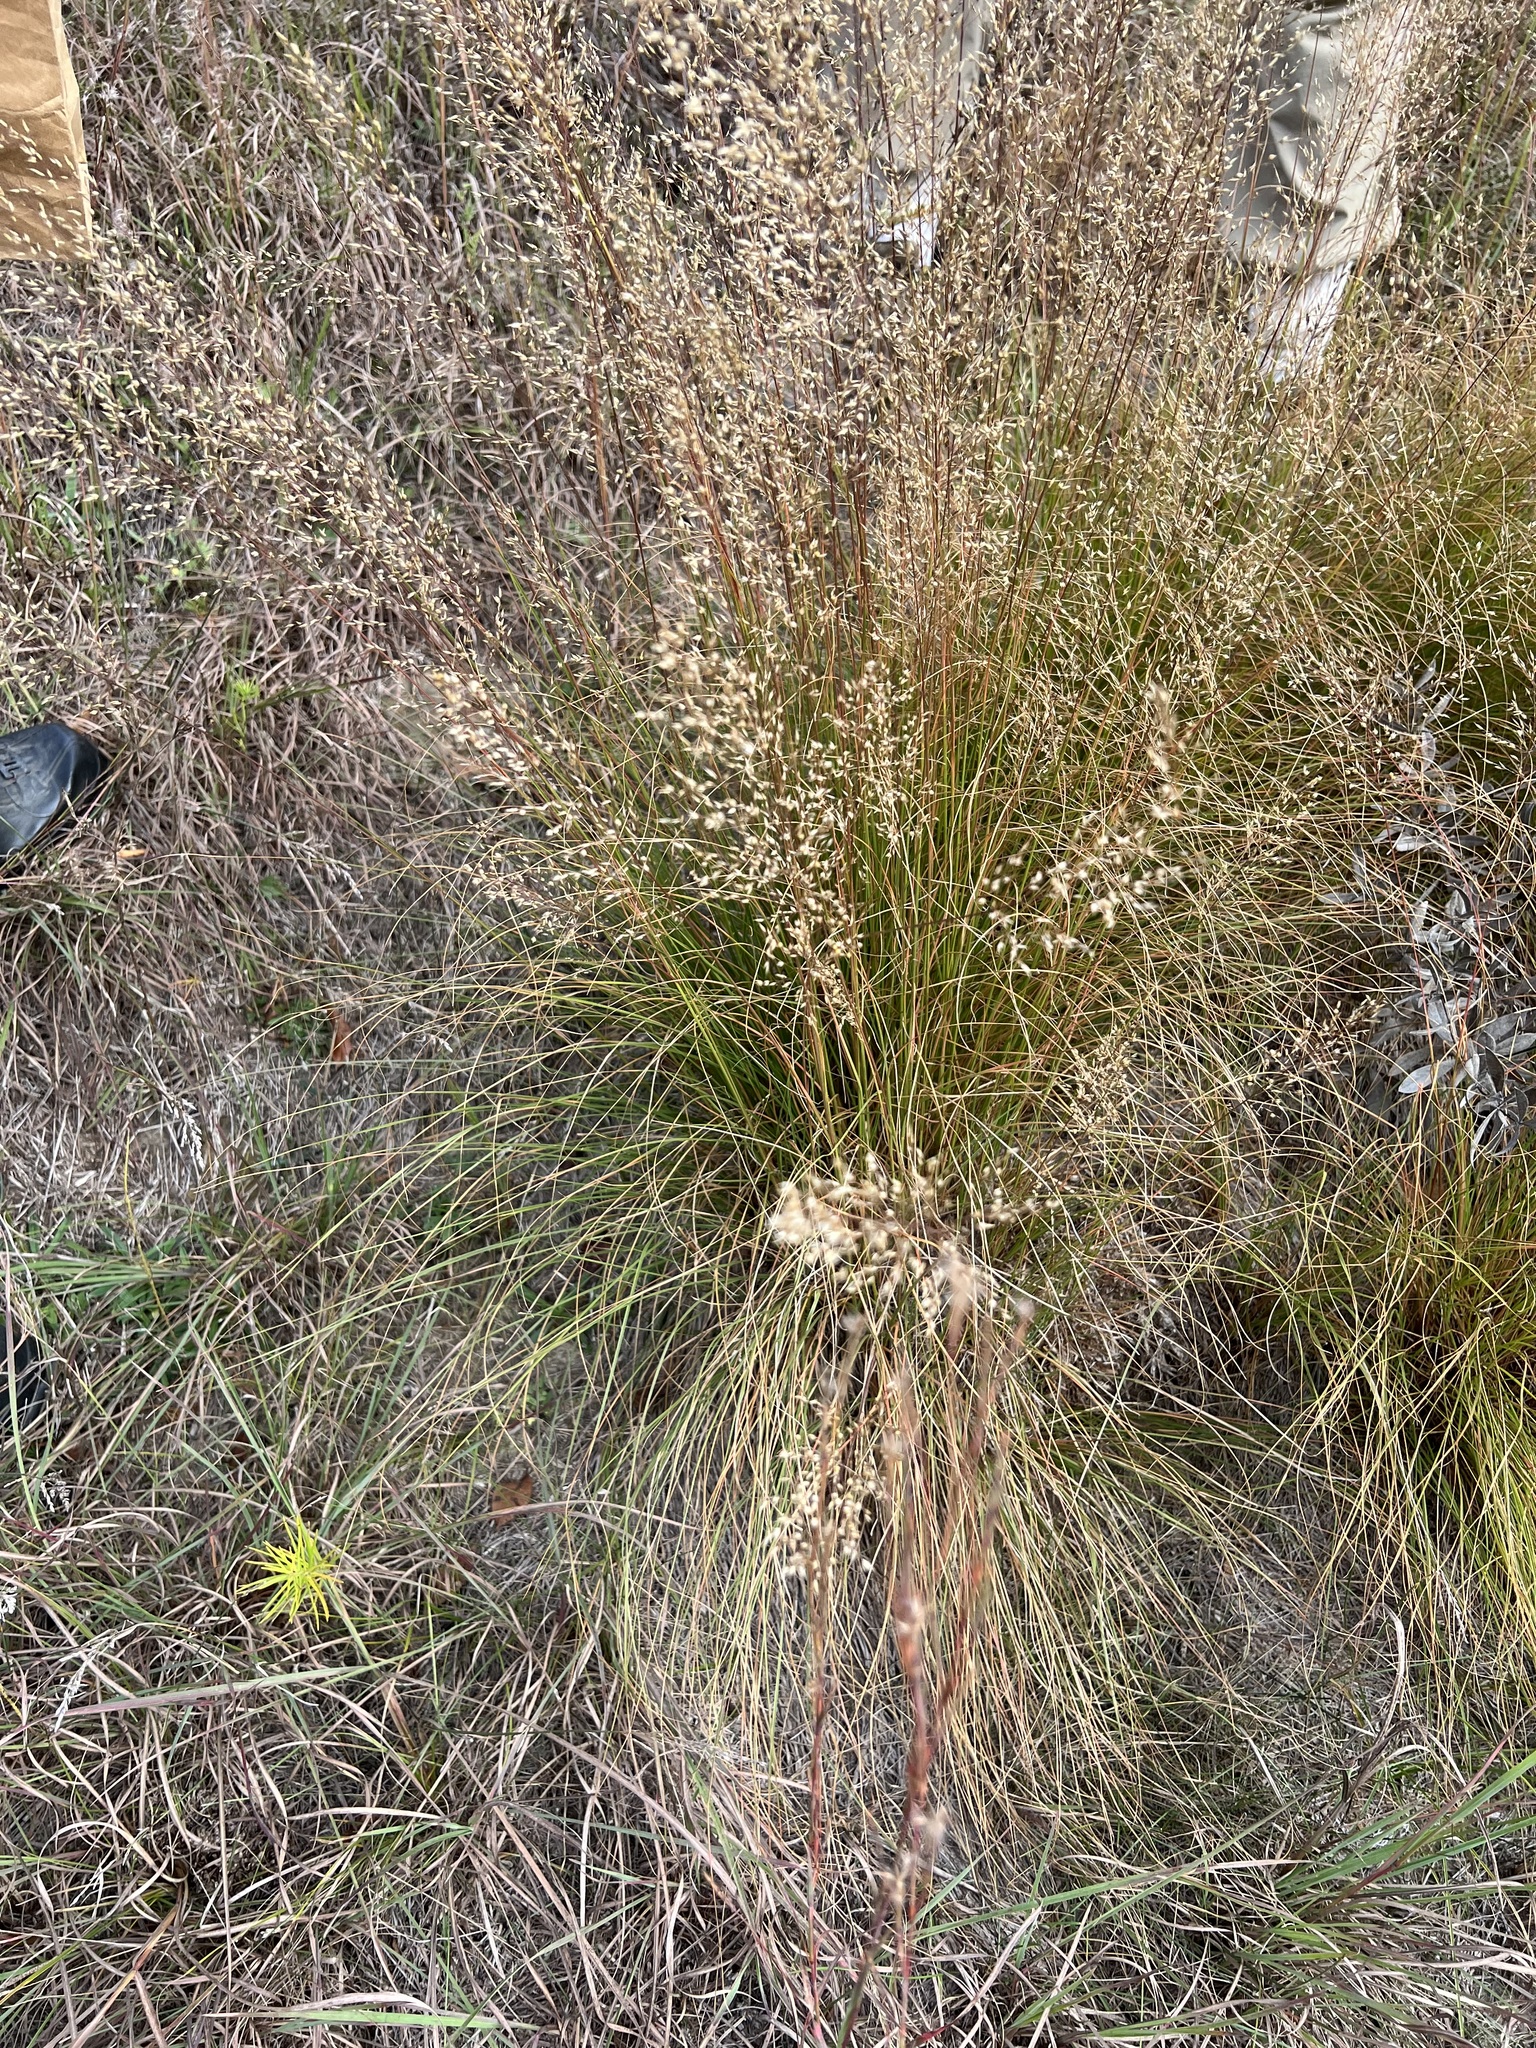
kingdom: Plantae
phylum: Tracheophyta
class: Liliopsida
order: Poales
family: Poaceae
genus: Sporobolus
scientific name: Sporobolus heterolepis
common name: Prairie dropseed
